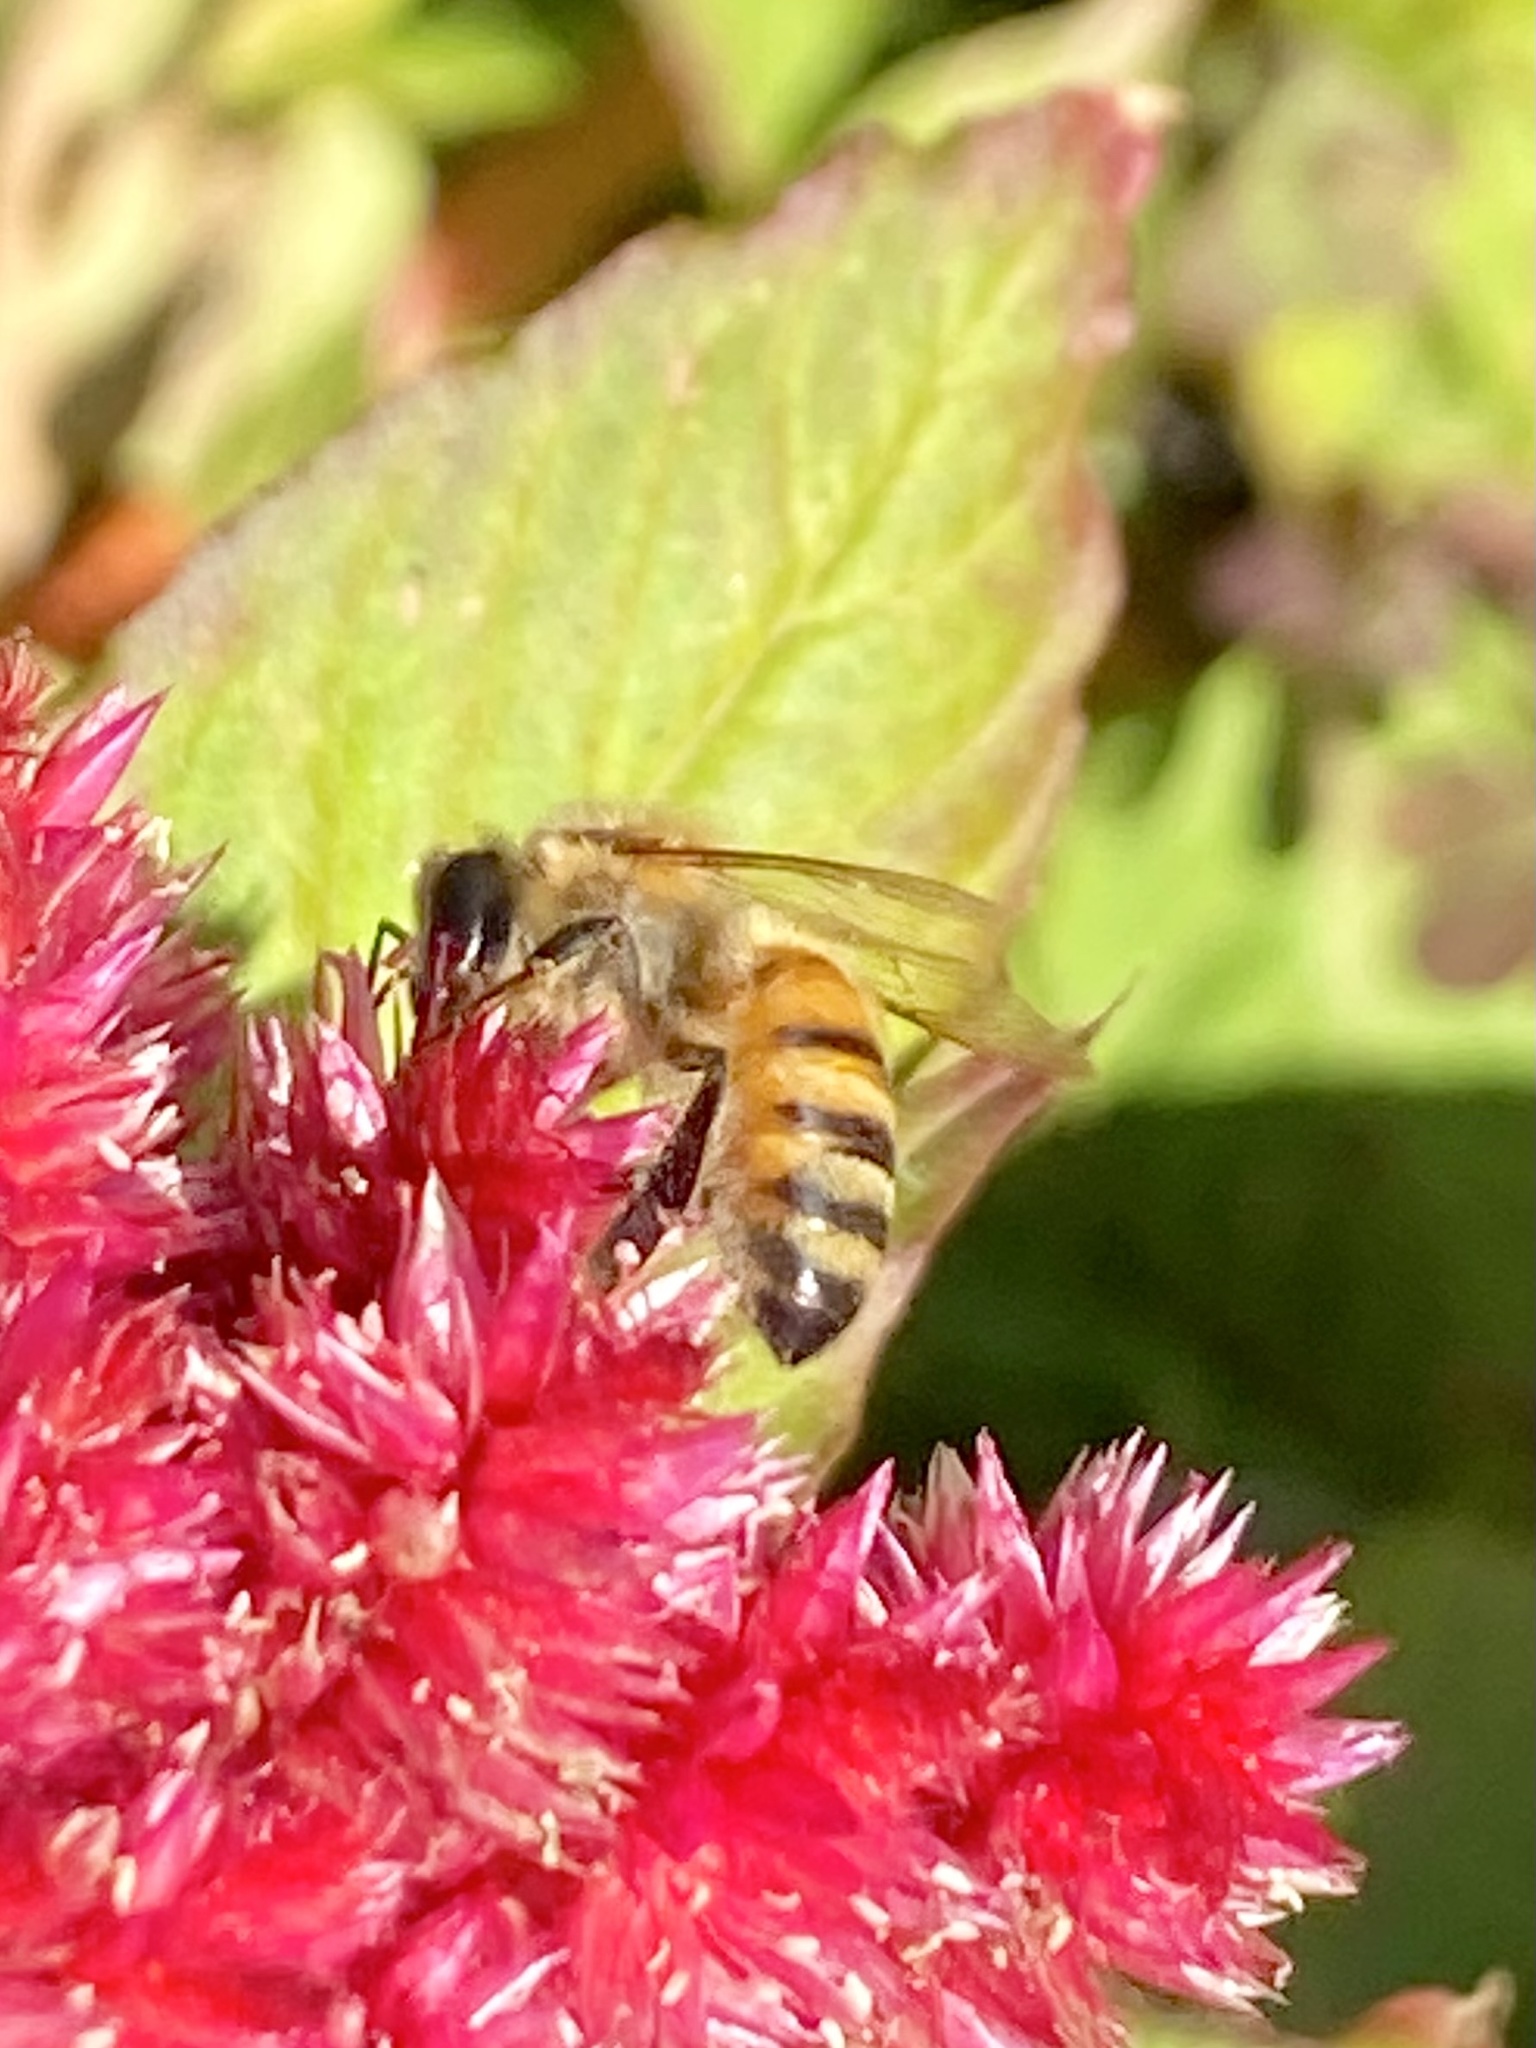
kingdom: Animalia
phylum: Arthropoda
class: Insecta
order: Hymenoptera
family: Apidae
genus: Apis
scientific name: Apis mellifera
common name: Honey bee
